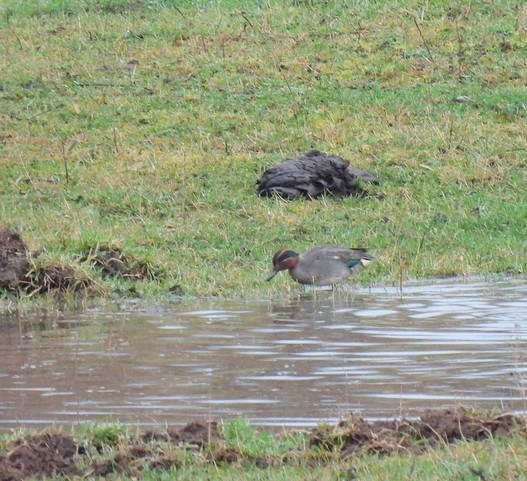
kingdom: Animalia
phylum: Chordata
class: Aves
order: Anseriformes
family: Anatidae
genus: Anas
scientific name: Anas crecca
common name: Eurasian teal
